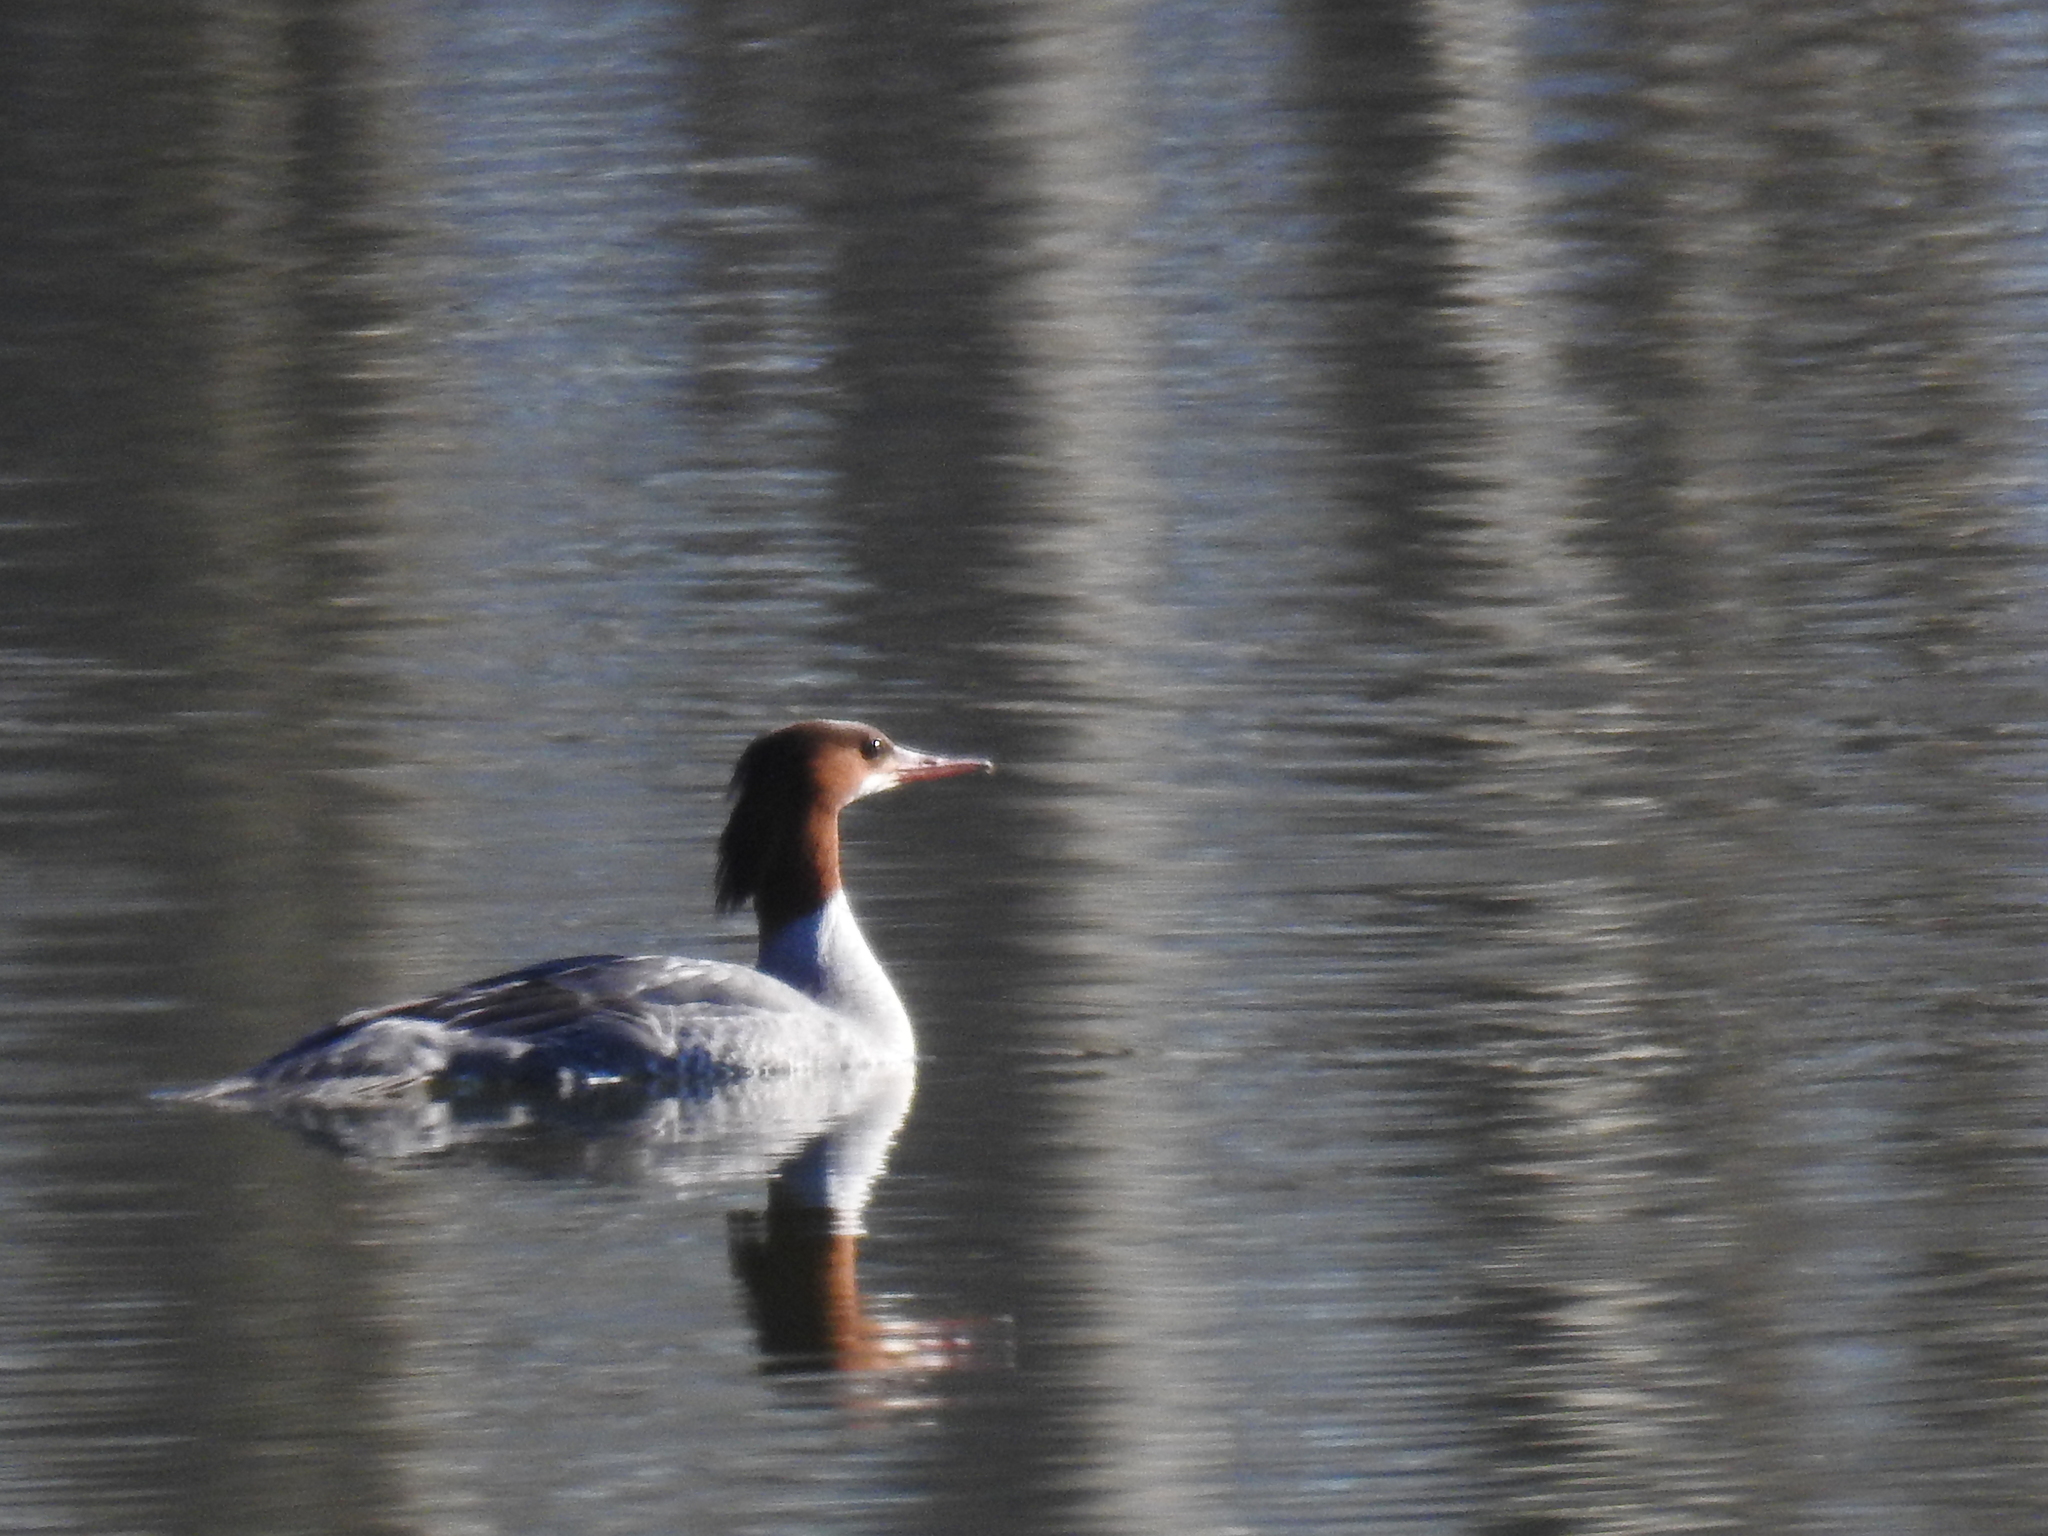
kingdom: Animalia
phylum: Chordata
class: Aves
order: Anseriformes
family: Anatidae
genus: Mergus
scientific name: Mergus merganser
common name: Common merganser
